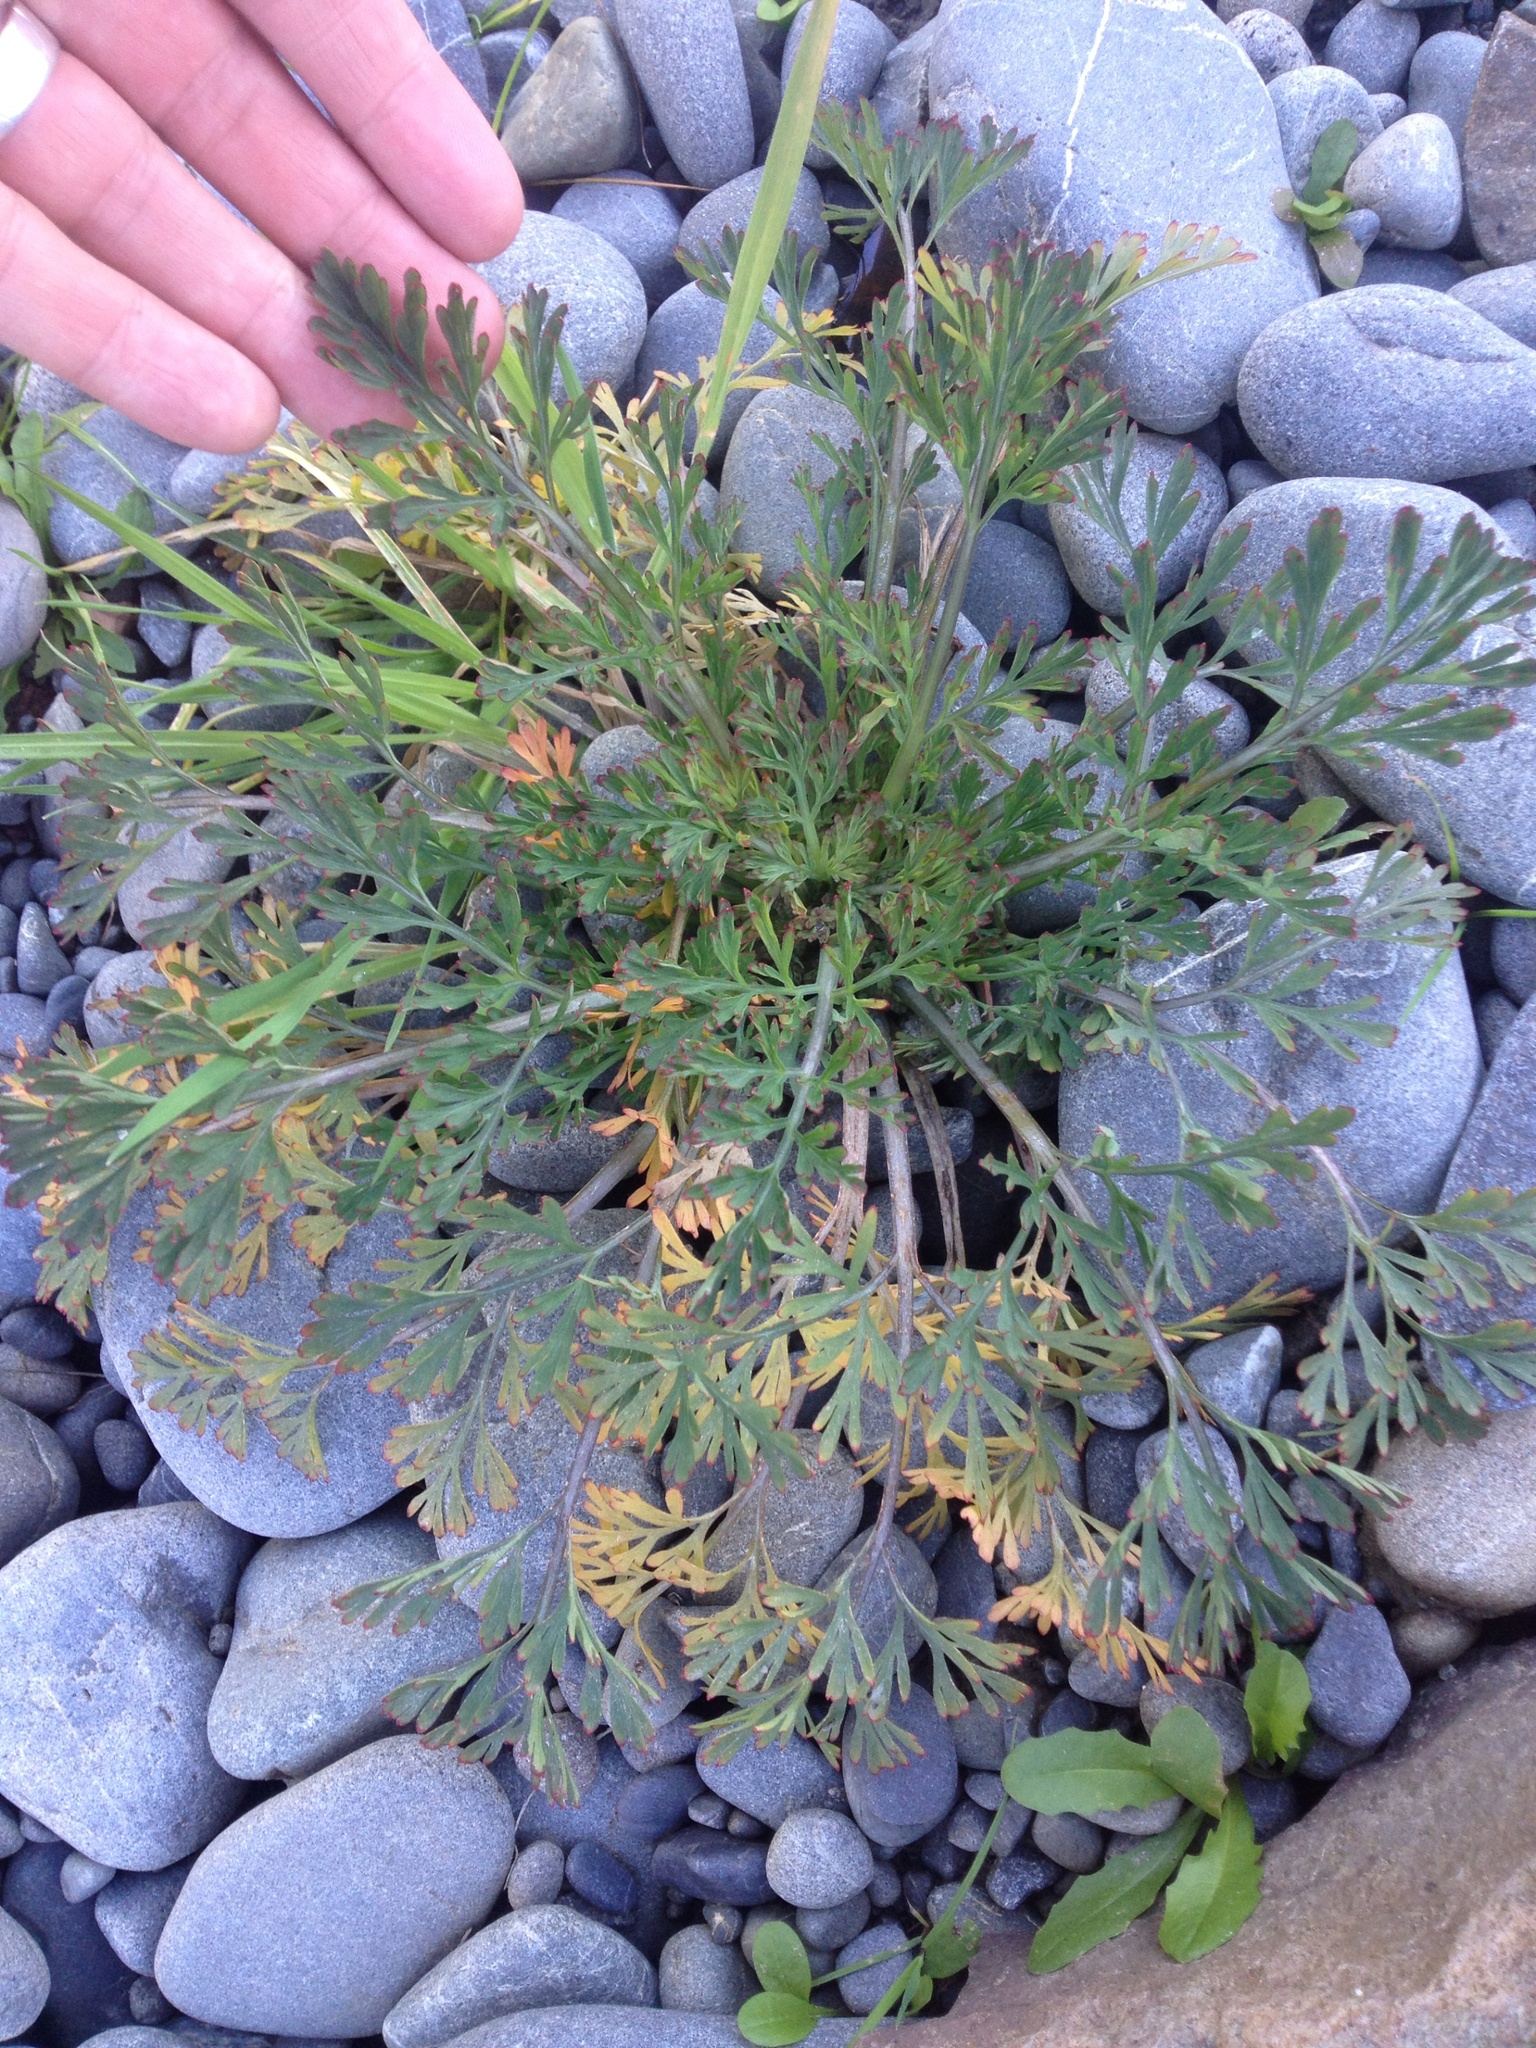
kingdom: Plantae
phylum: Tracheophyta
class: Magnoliopsida
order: Ranunculales
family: Papaveraceae
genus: Eschscholzia
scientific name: Eschscholzia californica
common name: California poppy
